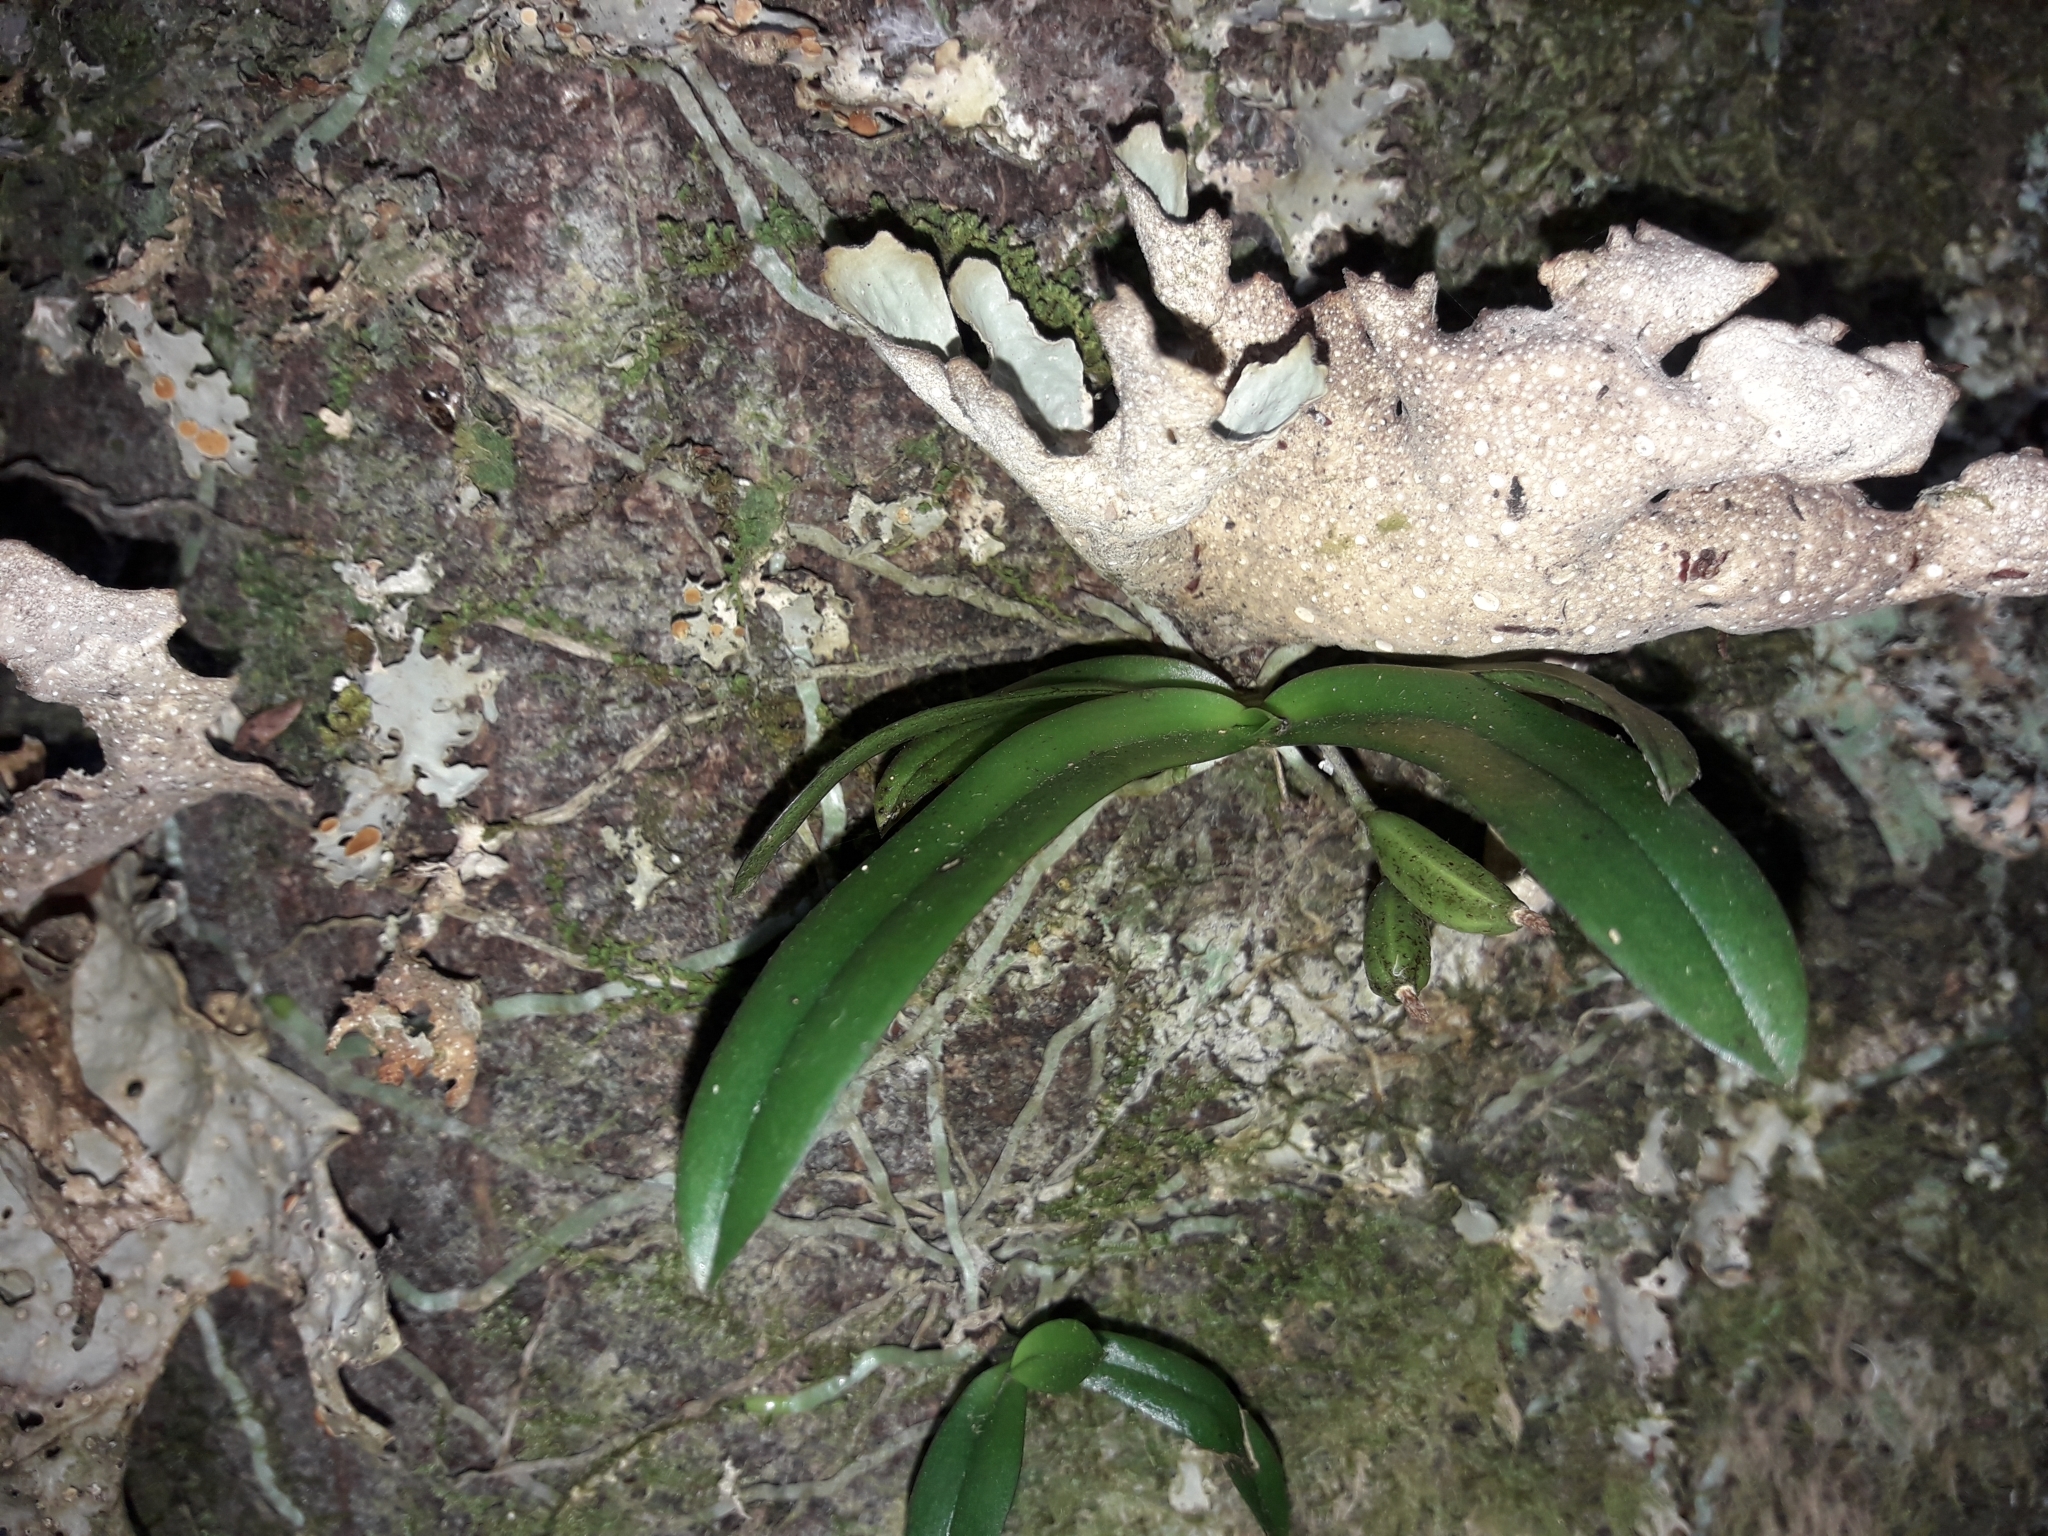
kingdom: Plantae
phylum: Tracheophyta
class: Liliopsida
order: Asparagales
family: Orchidaceae
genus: Drymoanthus
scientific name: Drymoanthus adversus
